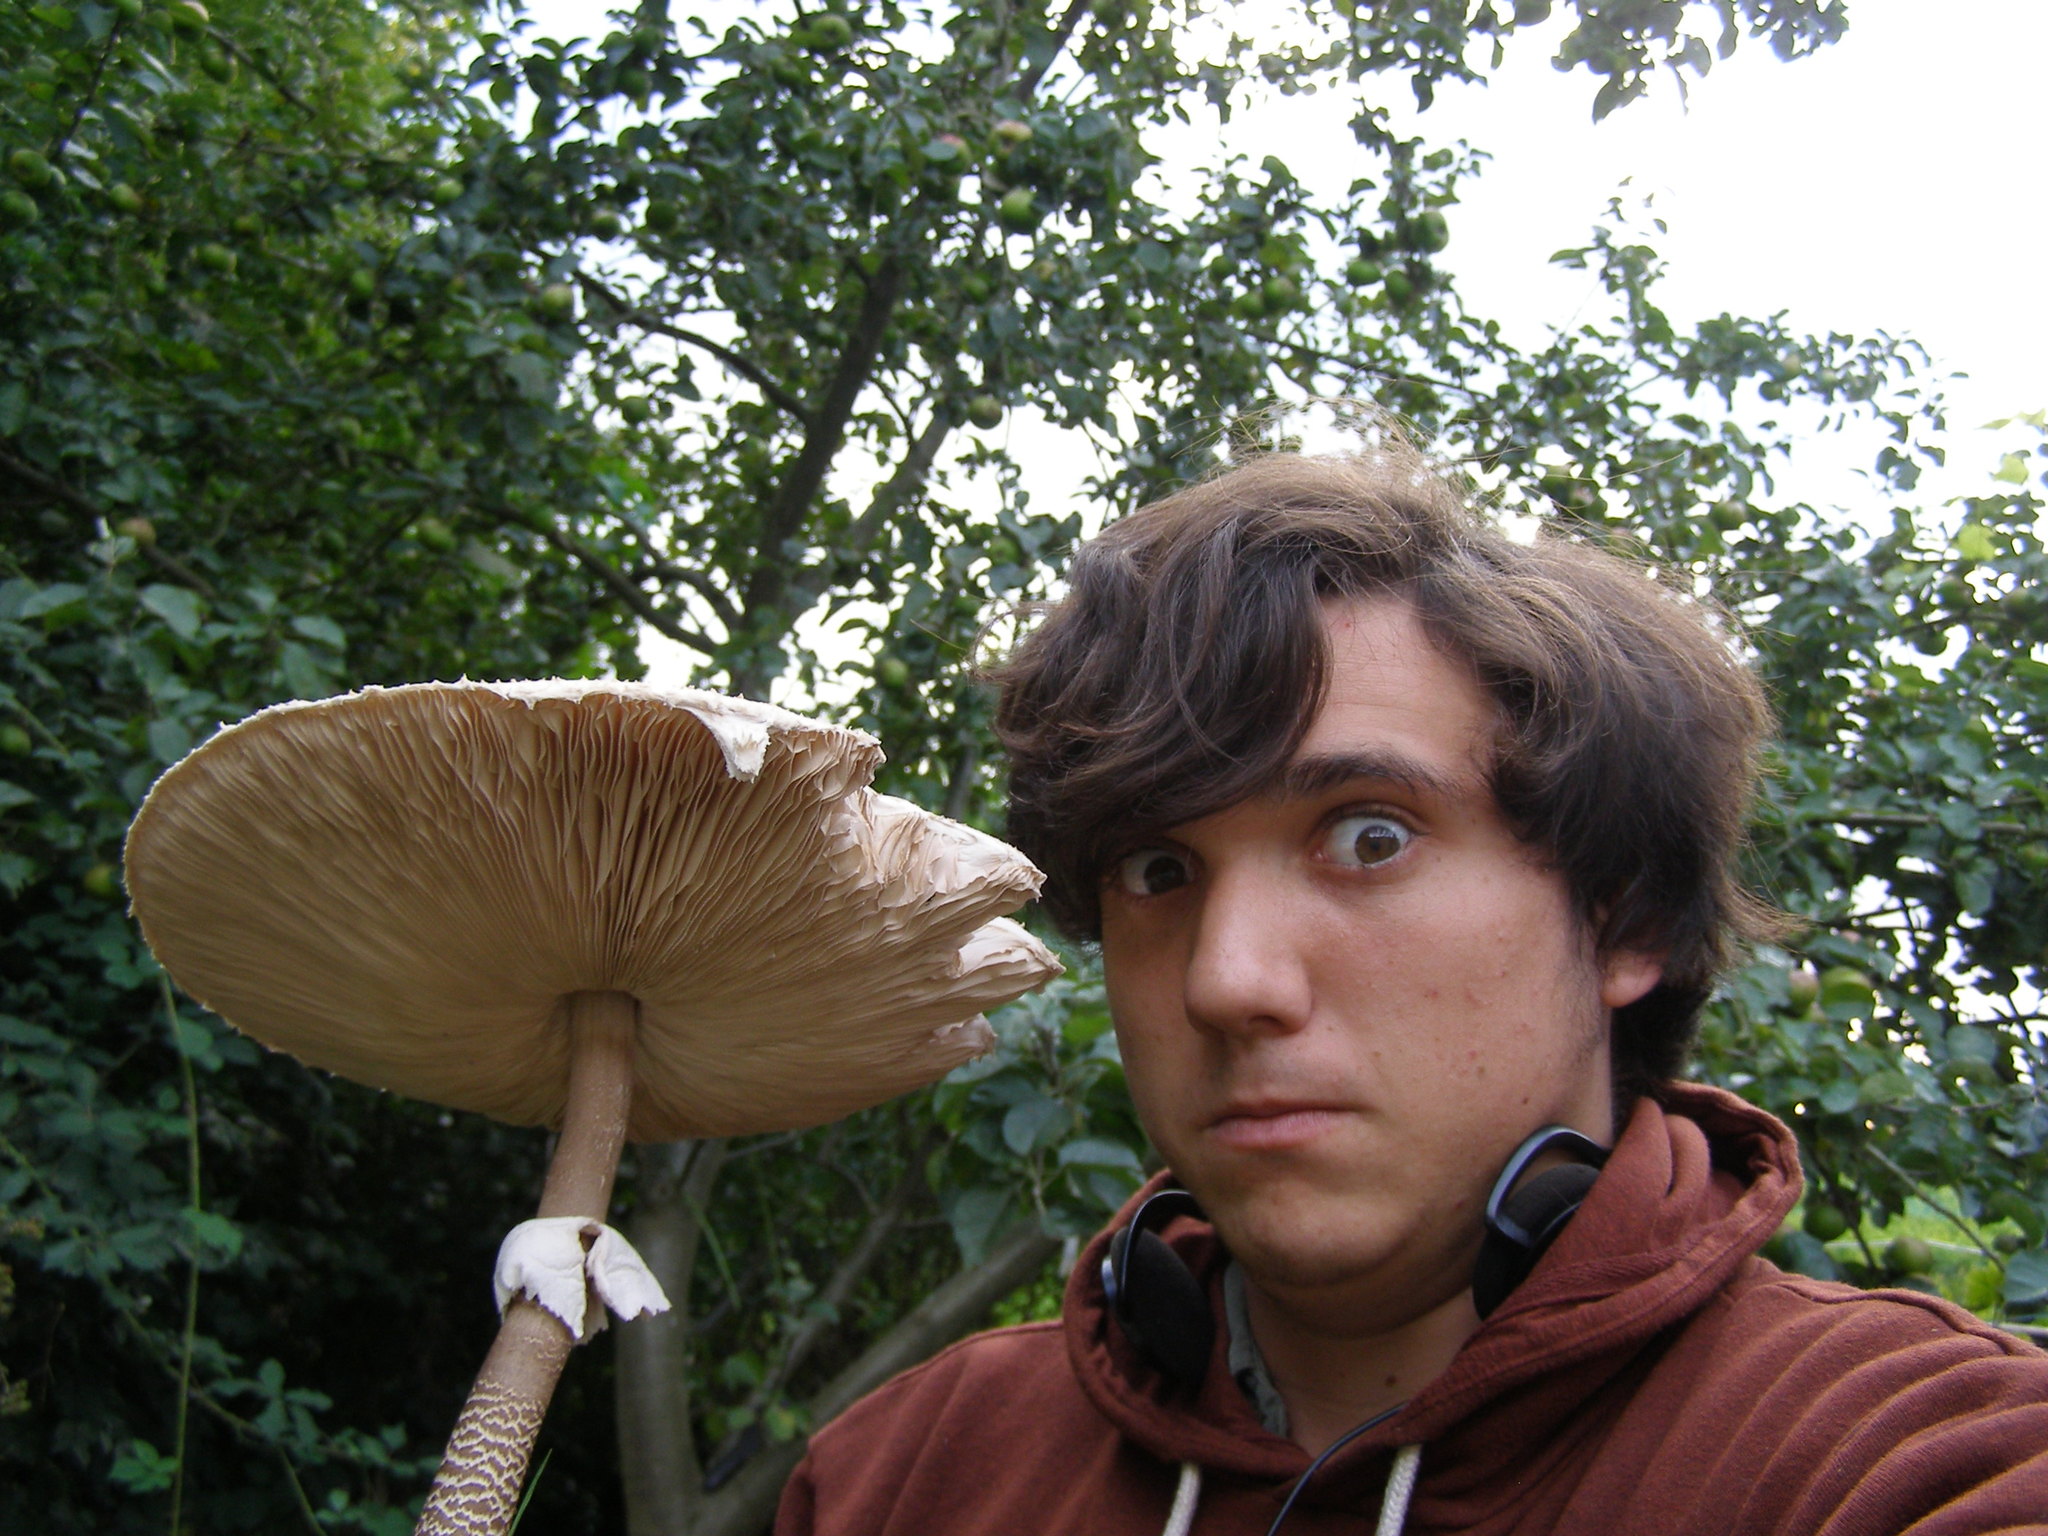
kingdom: Fungi
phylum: Basidiomycota
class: Agaricomycetes
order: Agaricales
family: Agaricaceae
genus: Macrolepiota
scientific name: Macrolepiota procera
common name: Parasol
